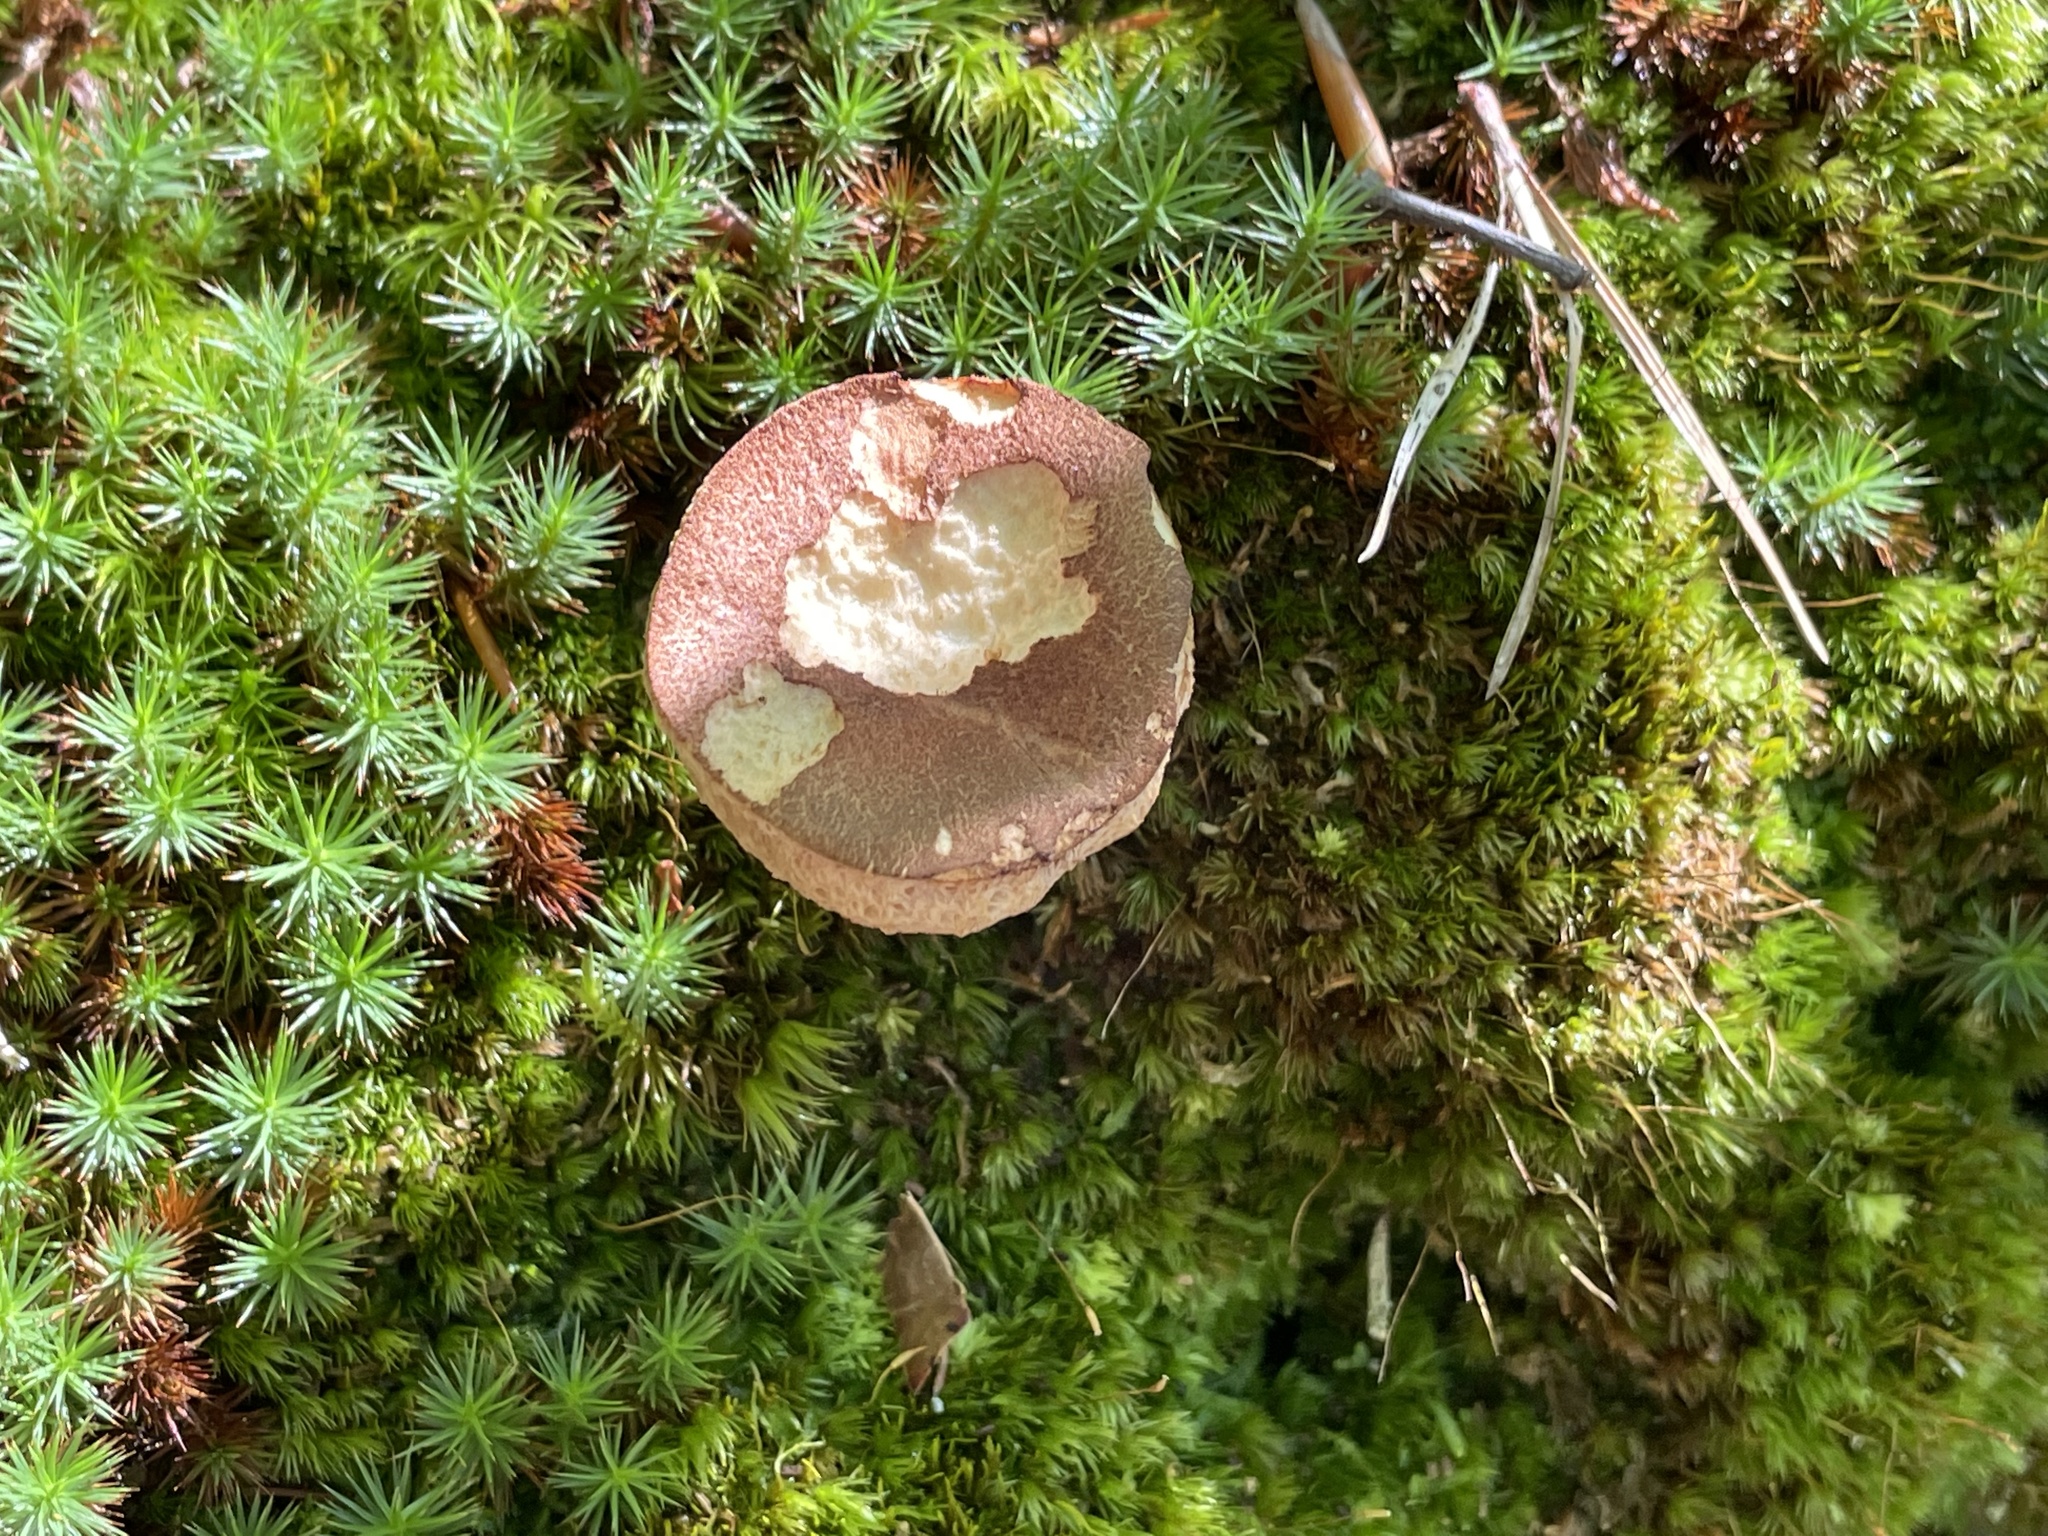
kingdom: Fungi
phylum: Basidiomycota
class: Agaricomycetes
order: Boletales
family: Boletaceae
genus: Bothia
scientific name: Bothia castanella
